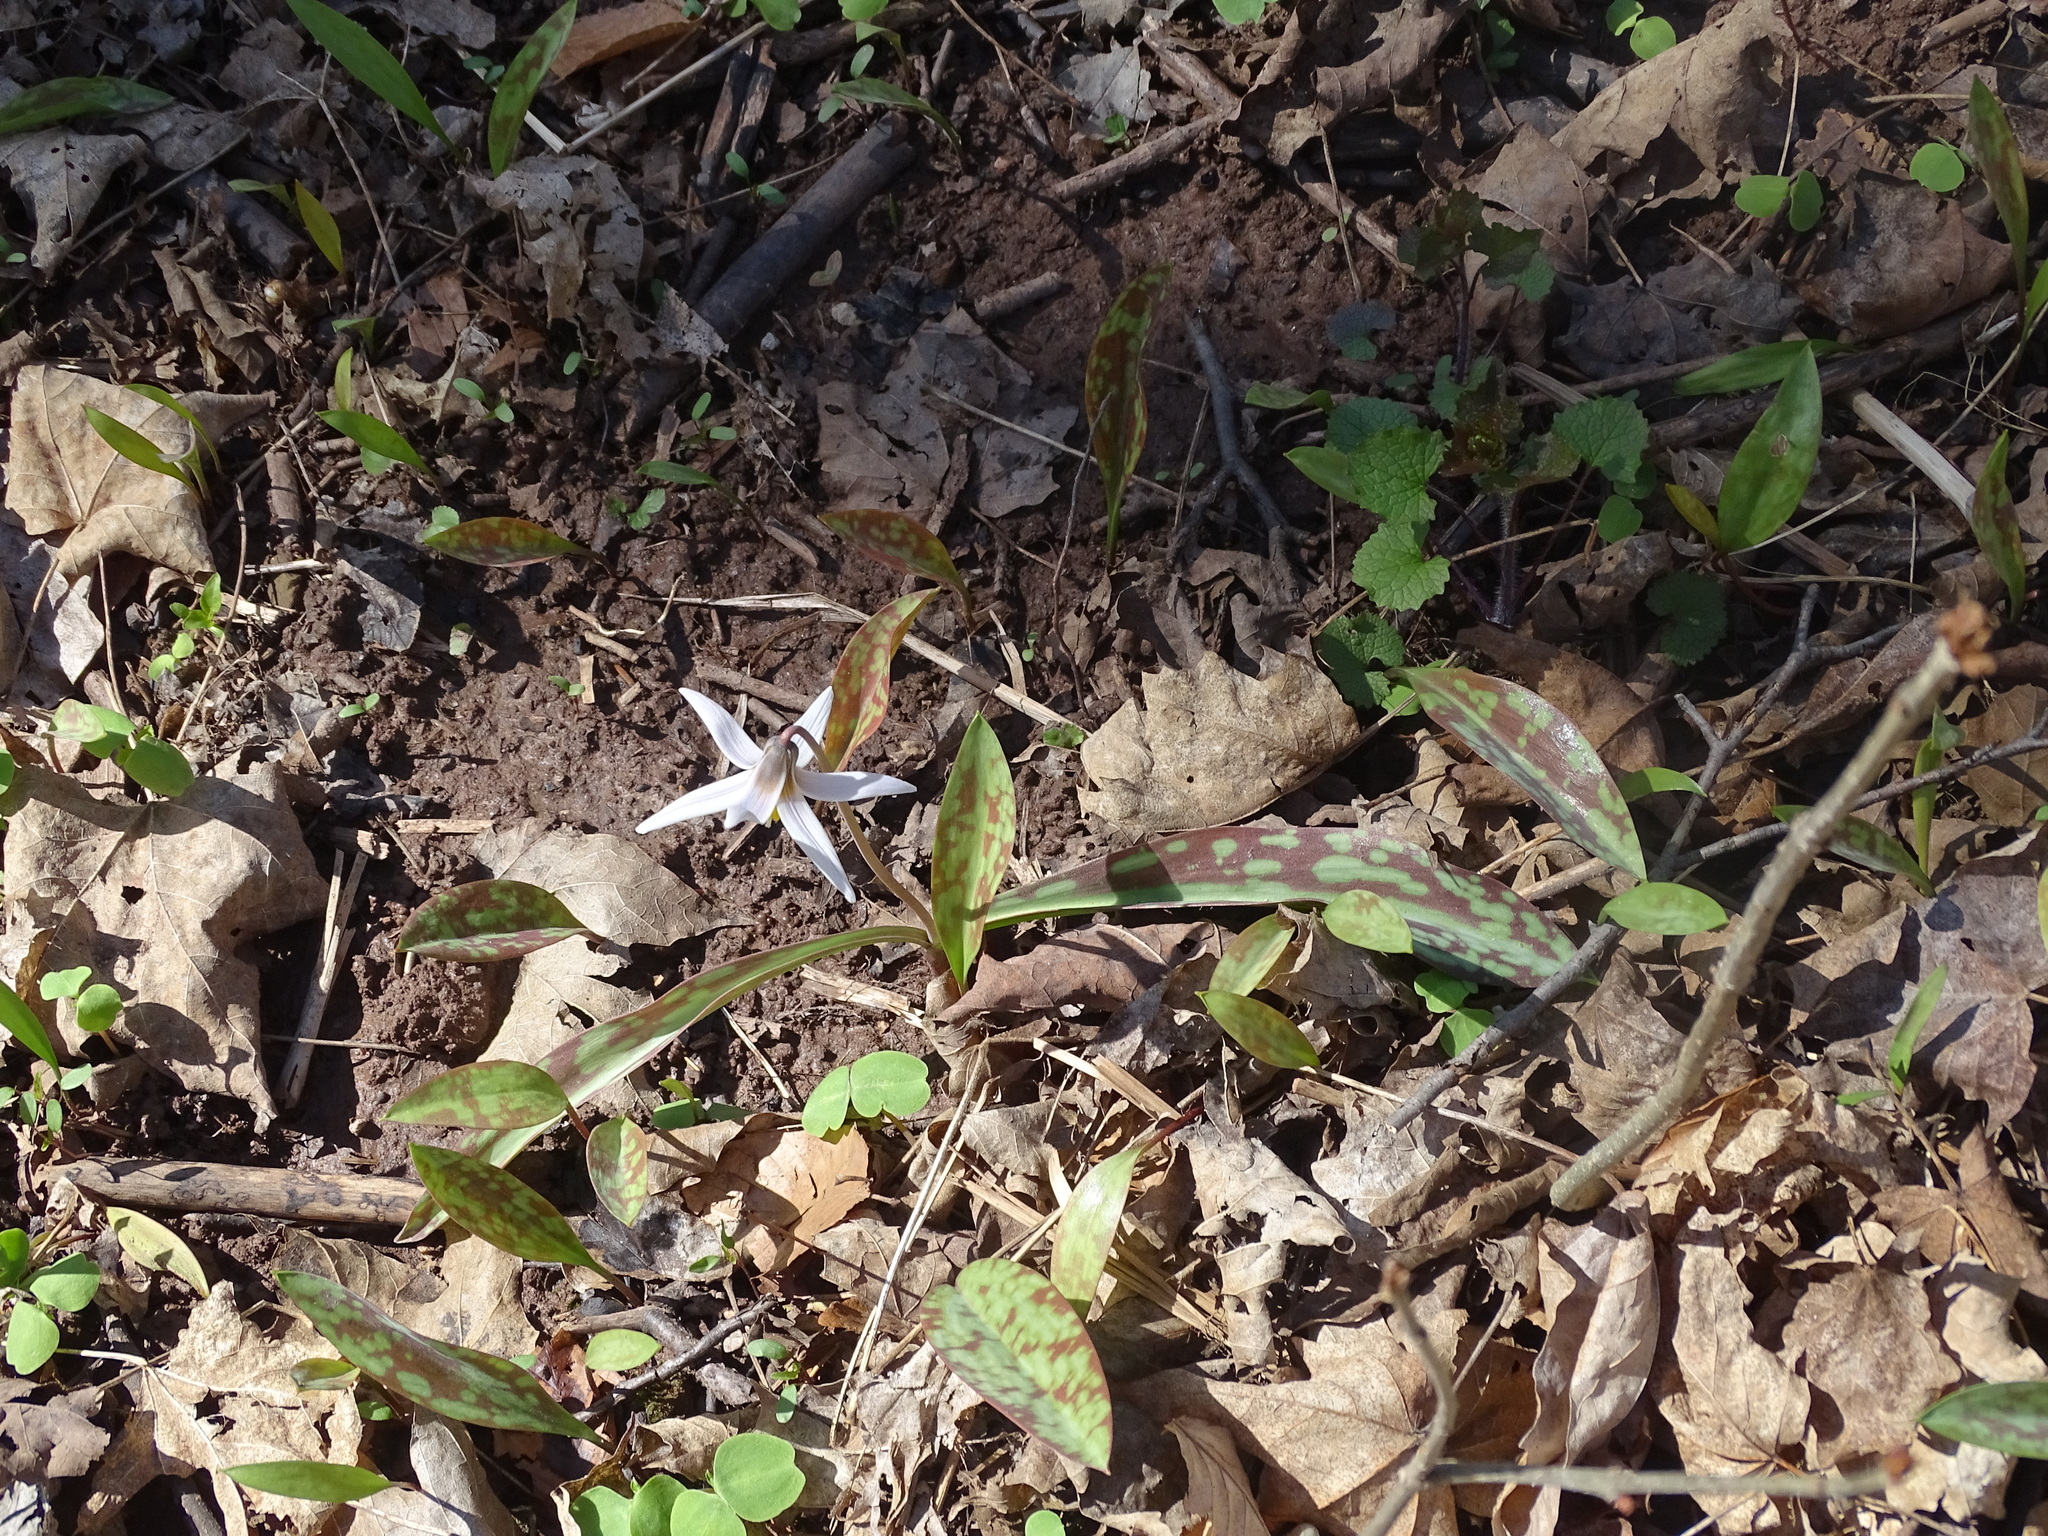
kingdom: Plantae
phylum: Tracheophyta
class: Liliopsida
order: Liliales
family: Liliaceae
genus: Erythronium
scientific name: Erythronium albidum
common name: White trout-lily
